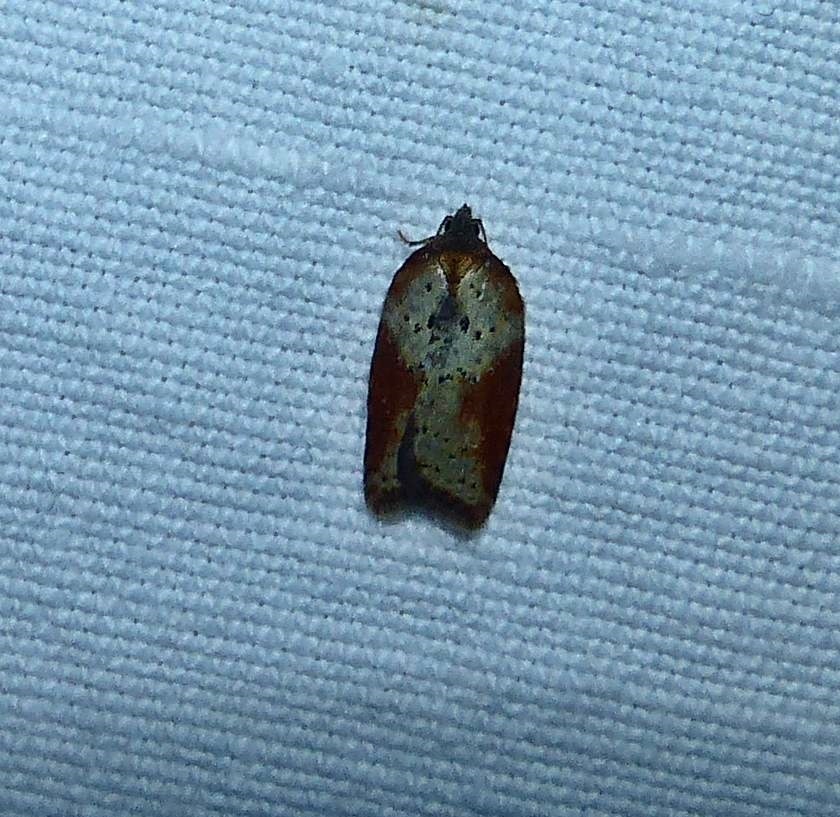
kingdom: Animalia
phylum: Arthropoda
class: Insecta
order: Lepidoptera
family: Tortricidae
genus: Acleris
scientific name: Acleris schalleriana
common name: Viburnum button
